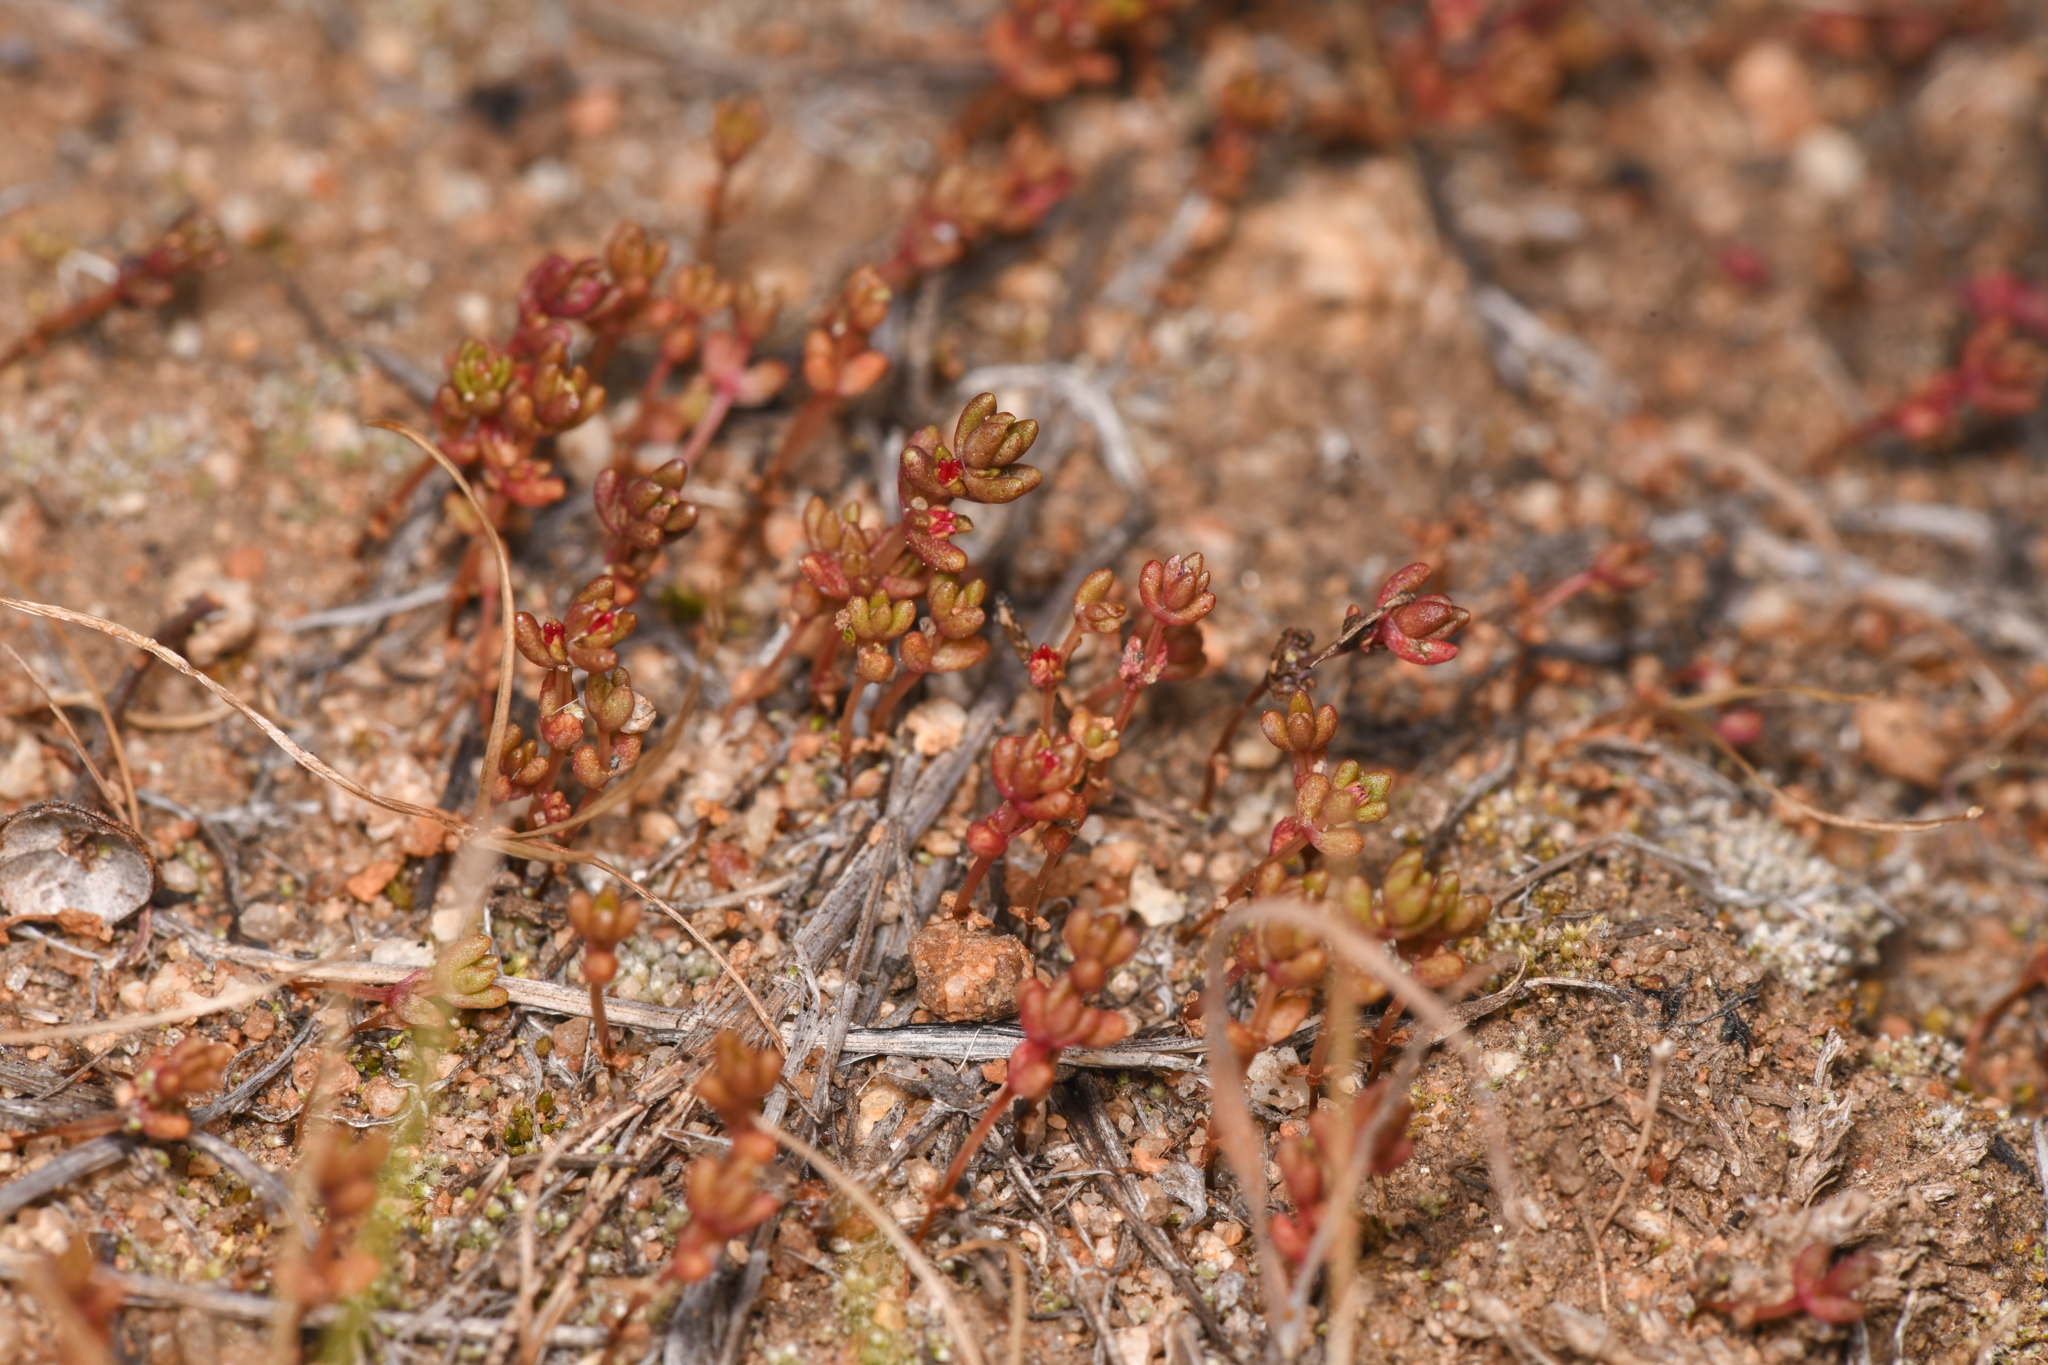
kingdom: Plantae
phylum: Tracheophyta
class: Magnoliopsida
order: Saxifragales
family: Crassulaceae
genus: Crassula
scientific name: Crassula connata
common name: Erect pygmyweed
